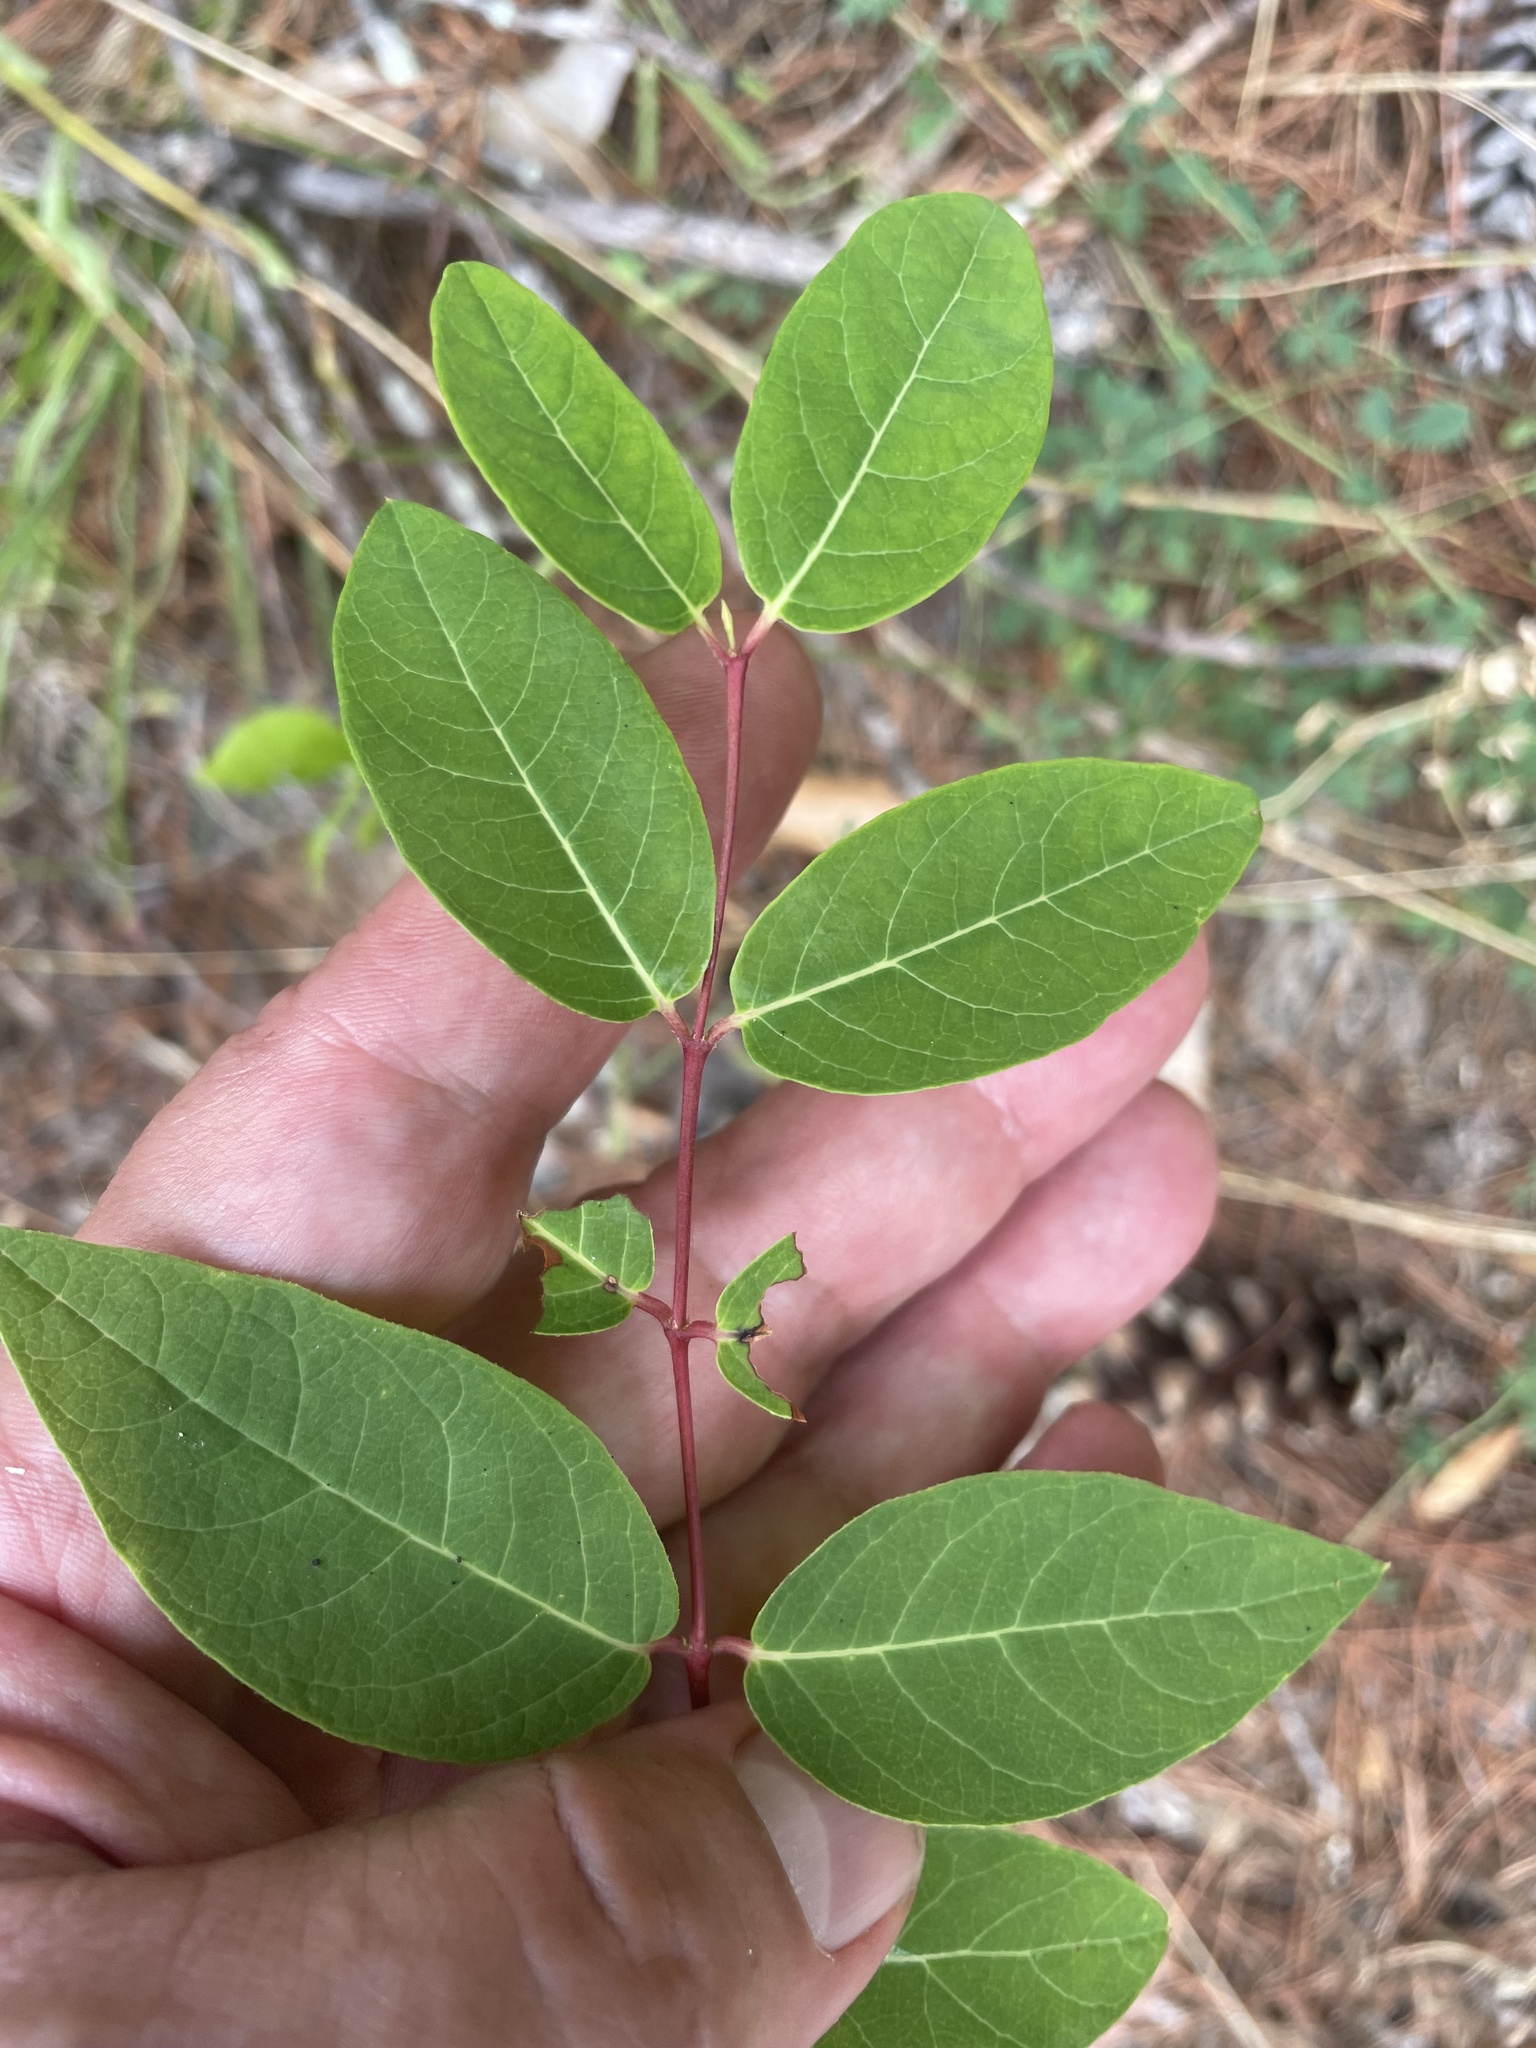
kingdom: Plantae
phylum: Tracheophyta
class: Magnoliopsida
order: Gentianales
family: Apocynaceae
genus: Apocynum
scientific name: Apocynum androsaemifolium
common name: Spreading dogbane
